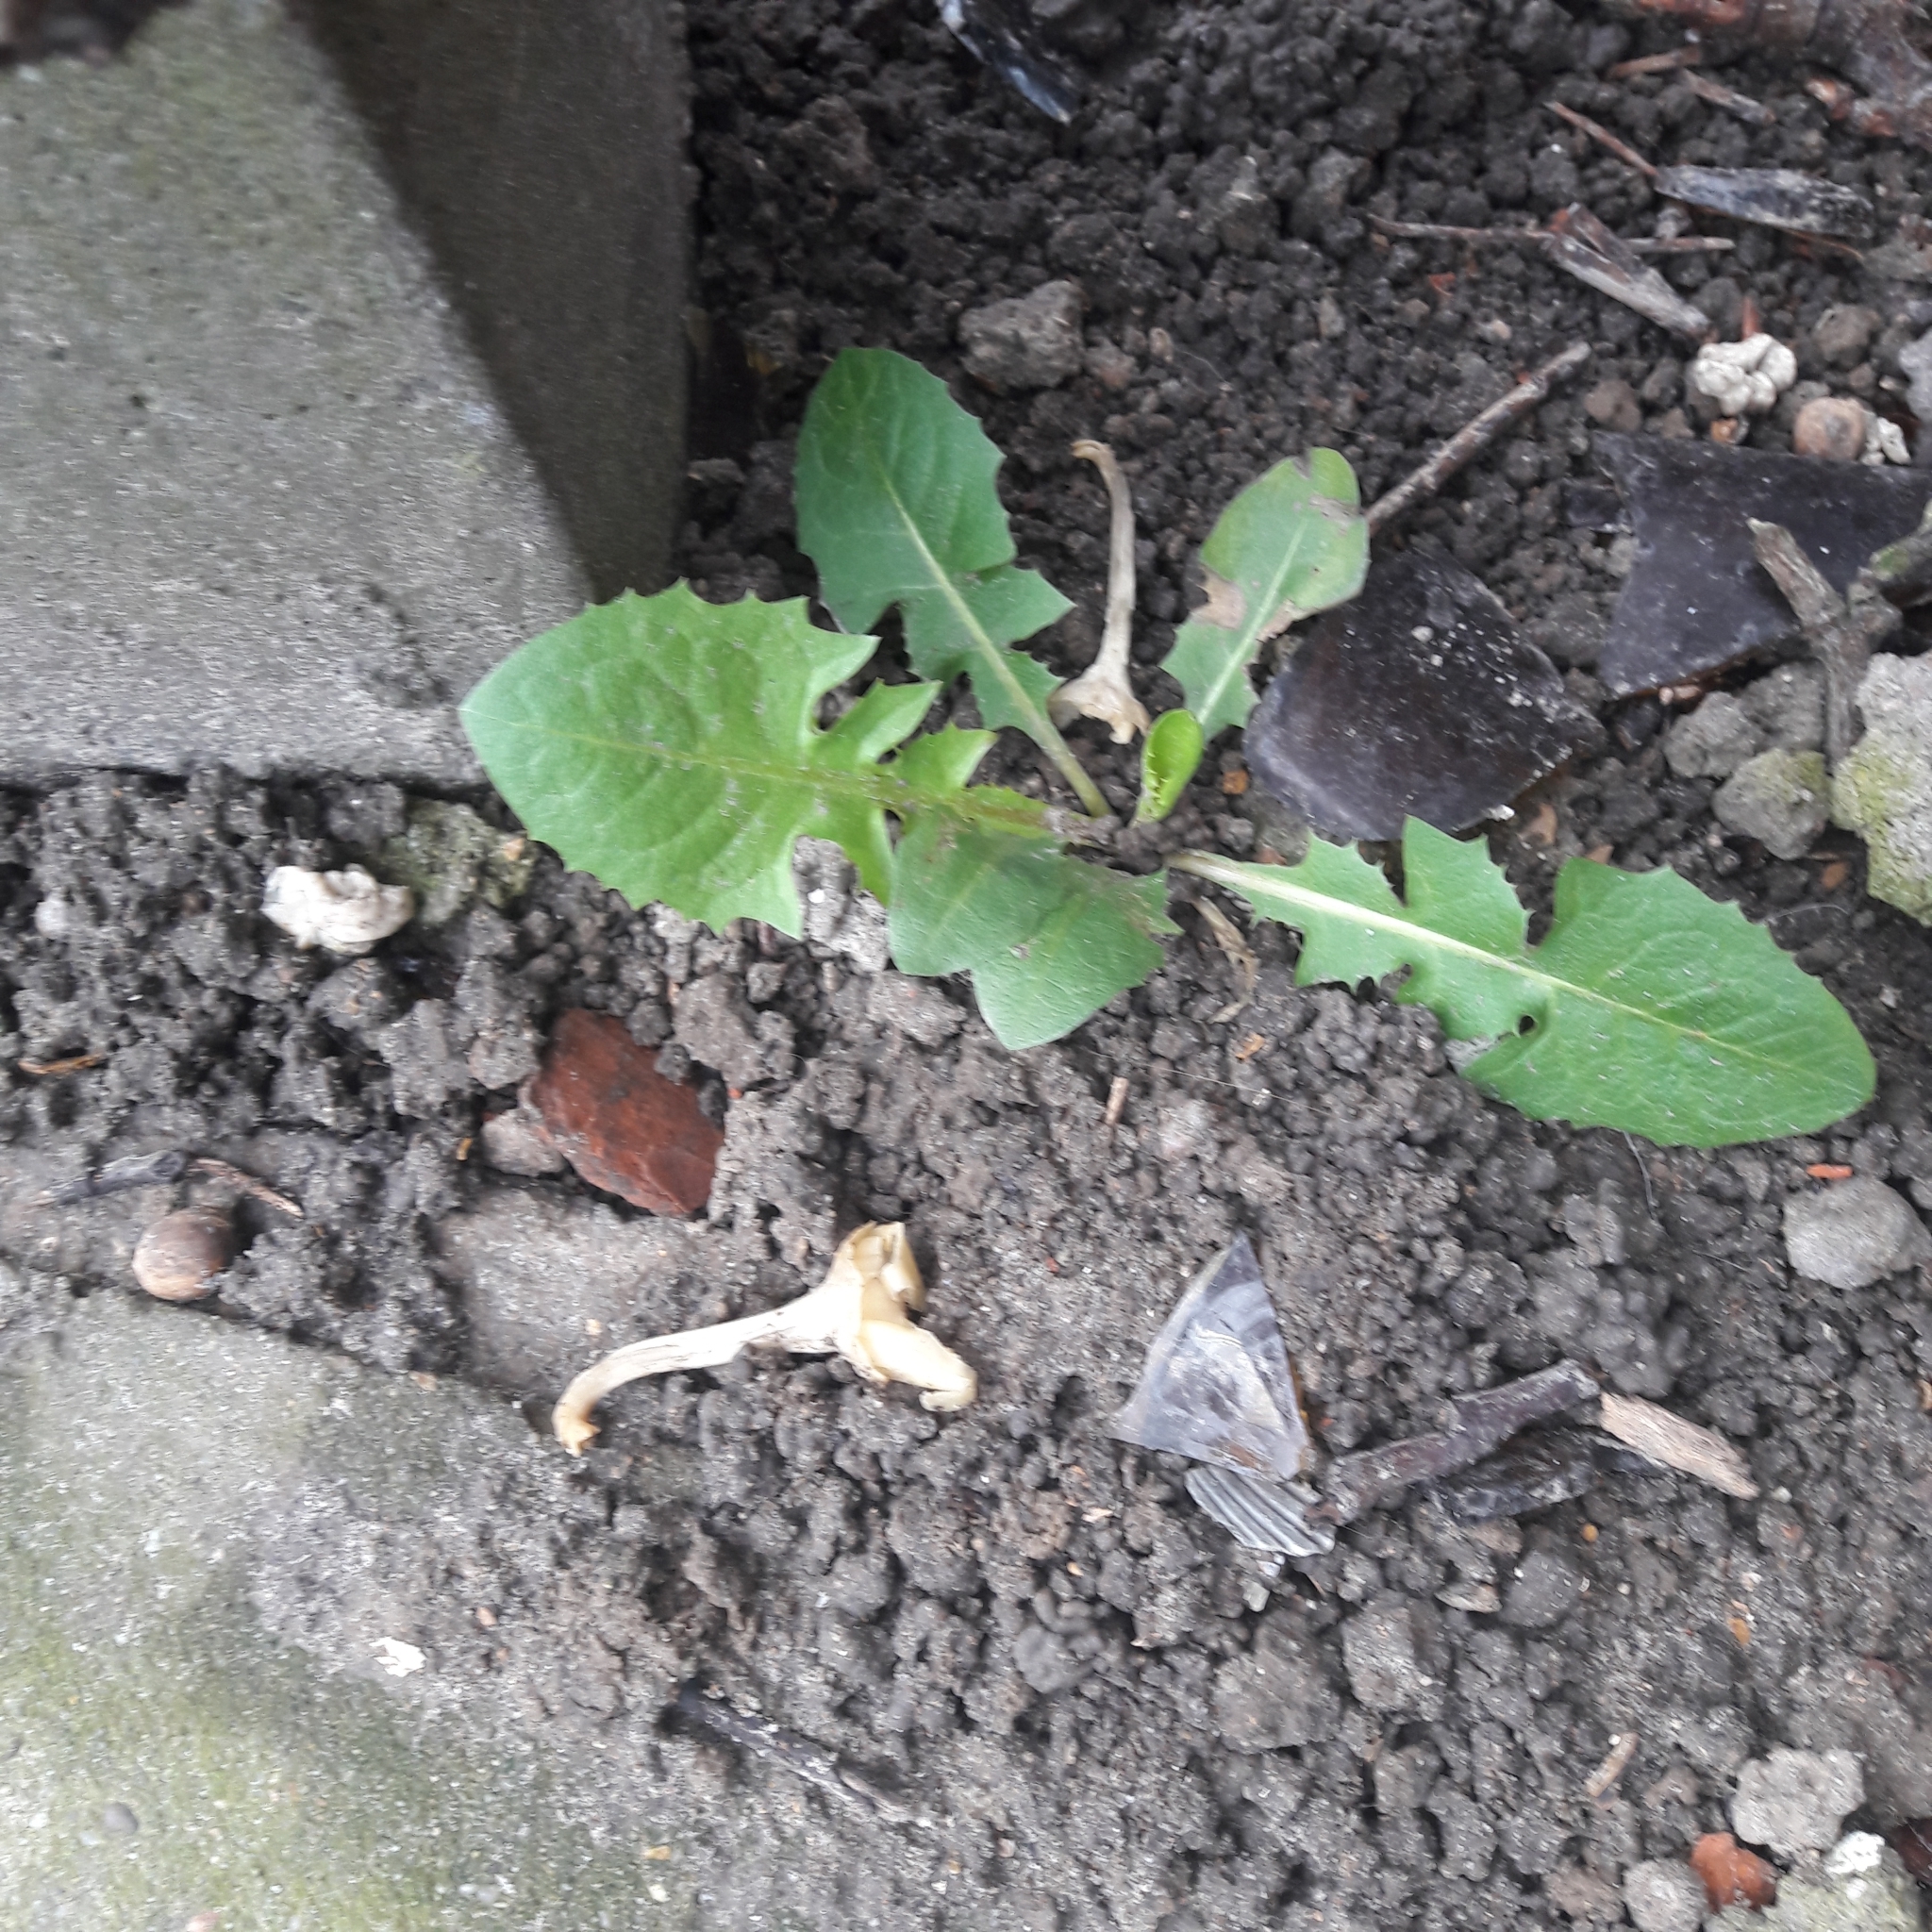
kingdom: Plantae
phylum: Tracheophyta
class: Magnoliopsida
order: Asterales
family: Asteraceae
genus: Taraxacum
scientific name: Taraxacum officinale
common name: Common dandelion
